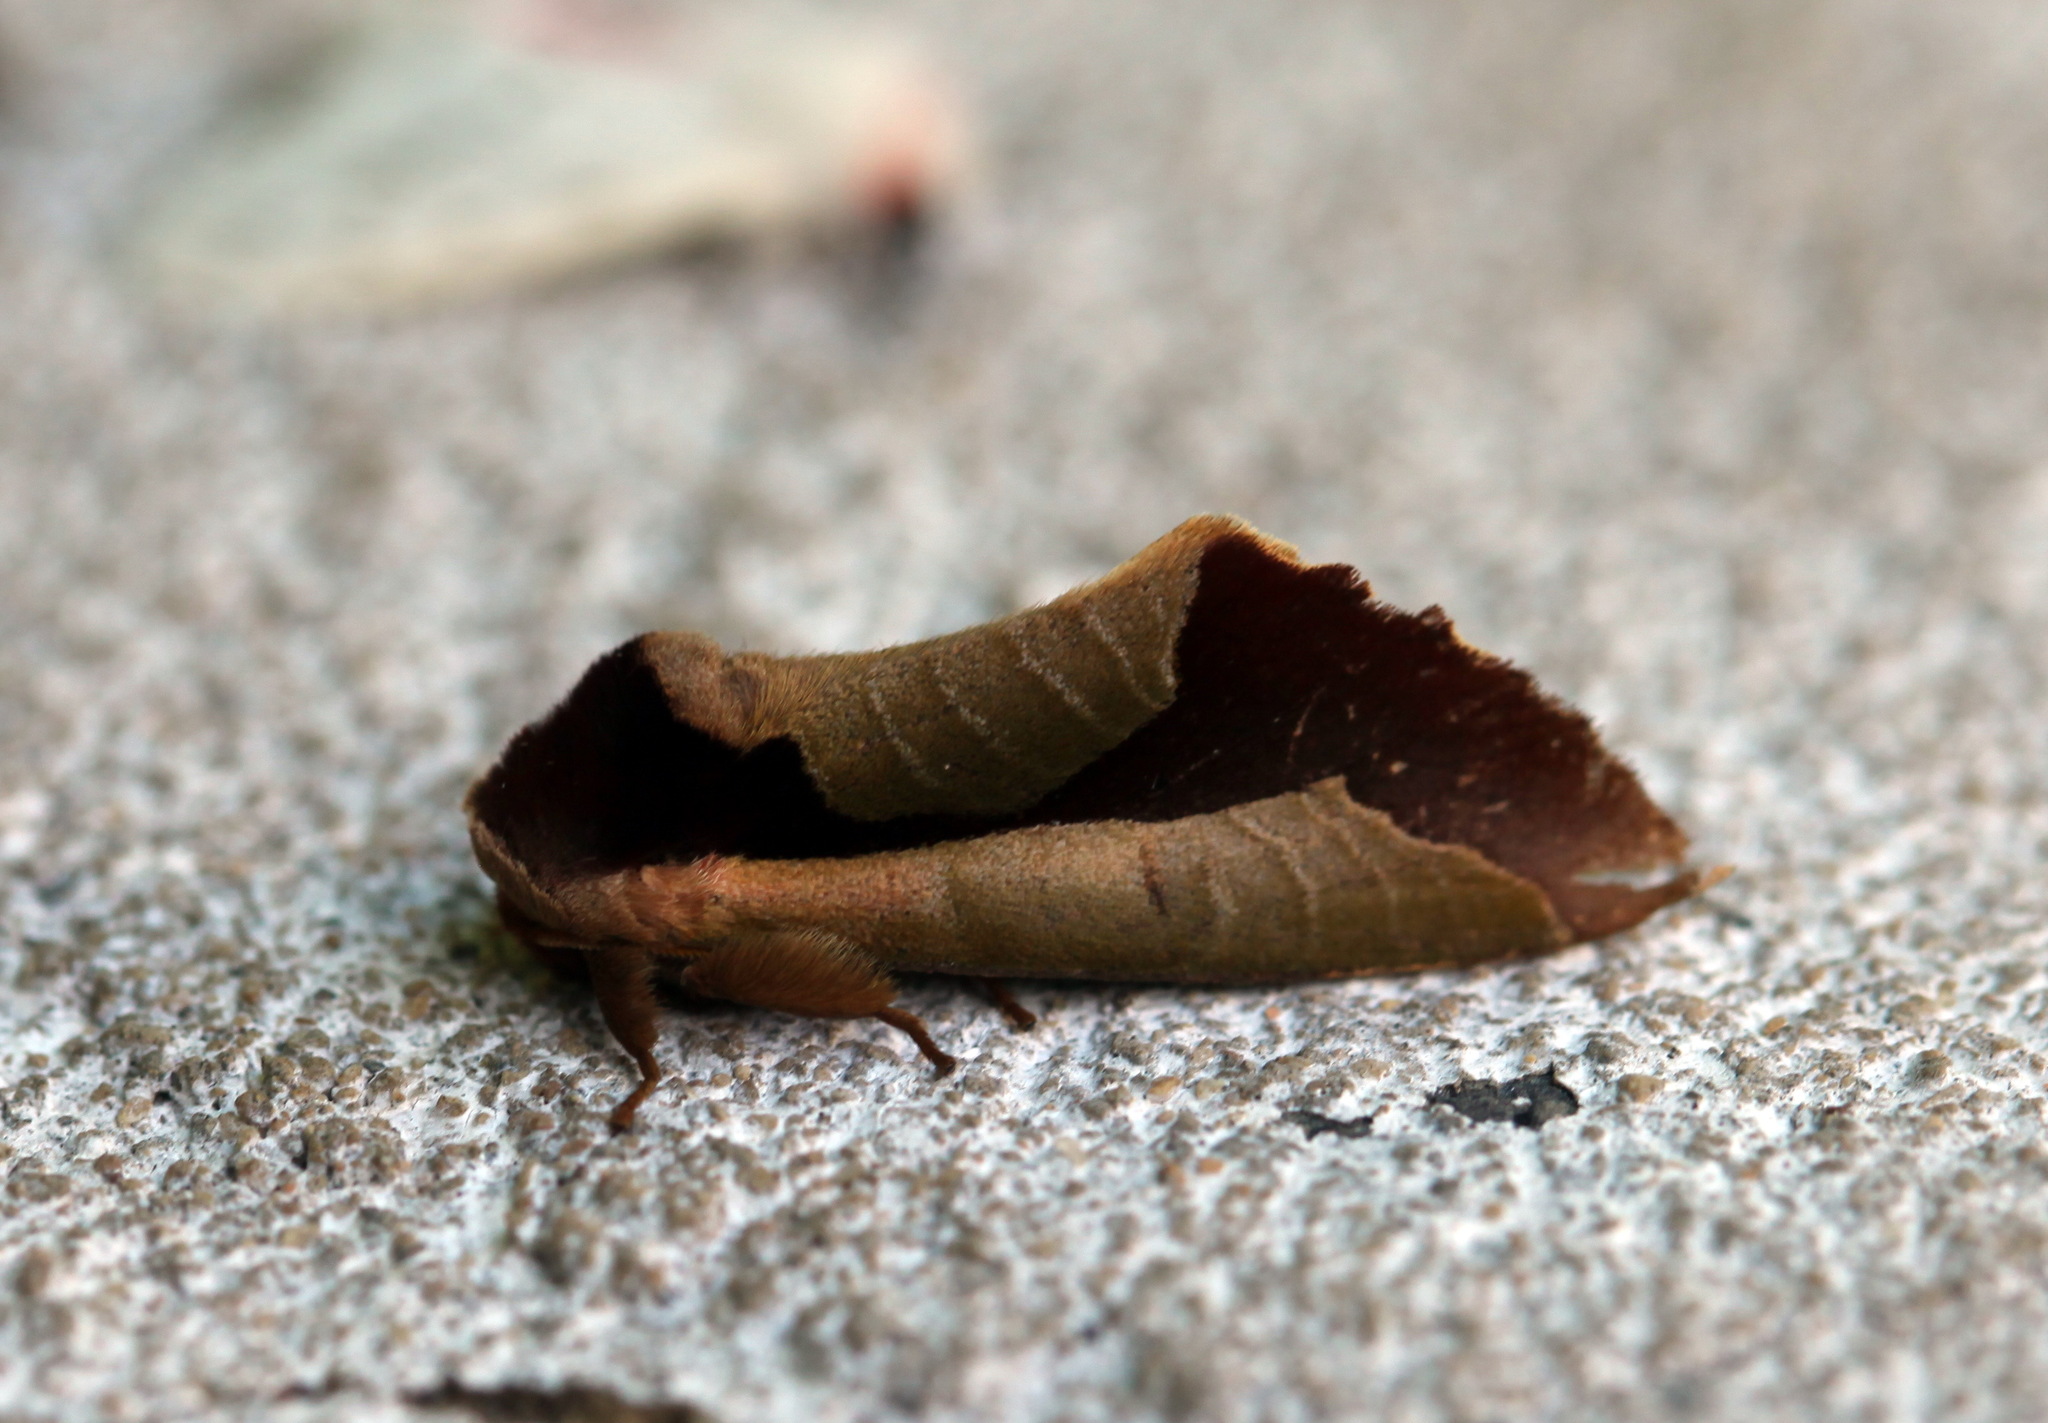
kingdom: Animalia
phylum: Arthropoda
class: Insecta
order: Lepidoptera
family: Notodontidae
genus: Uropyia
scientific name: Uropyia meticulodina
